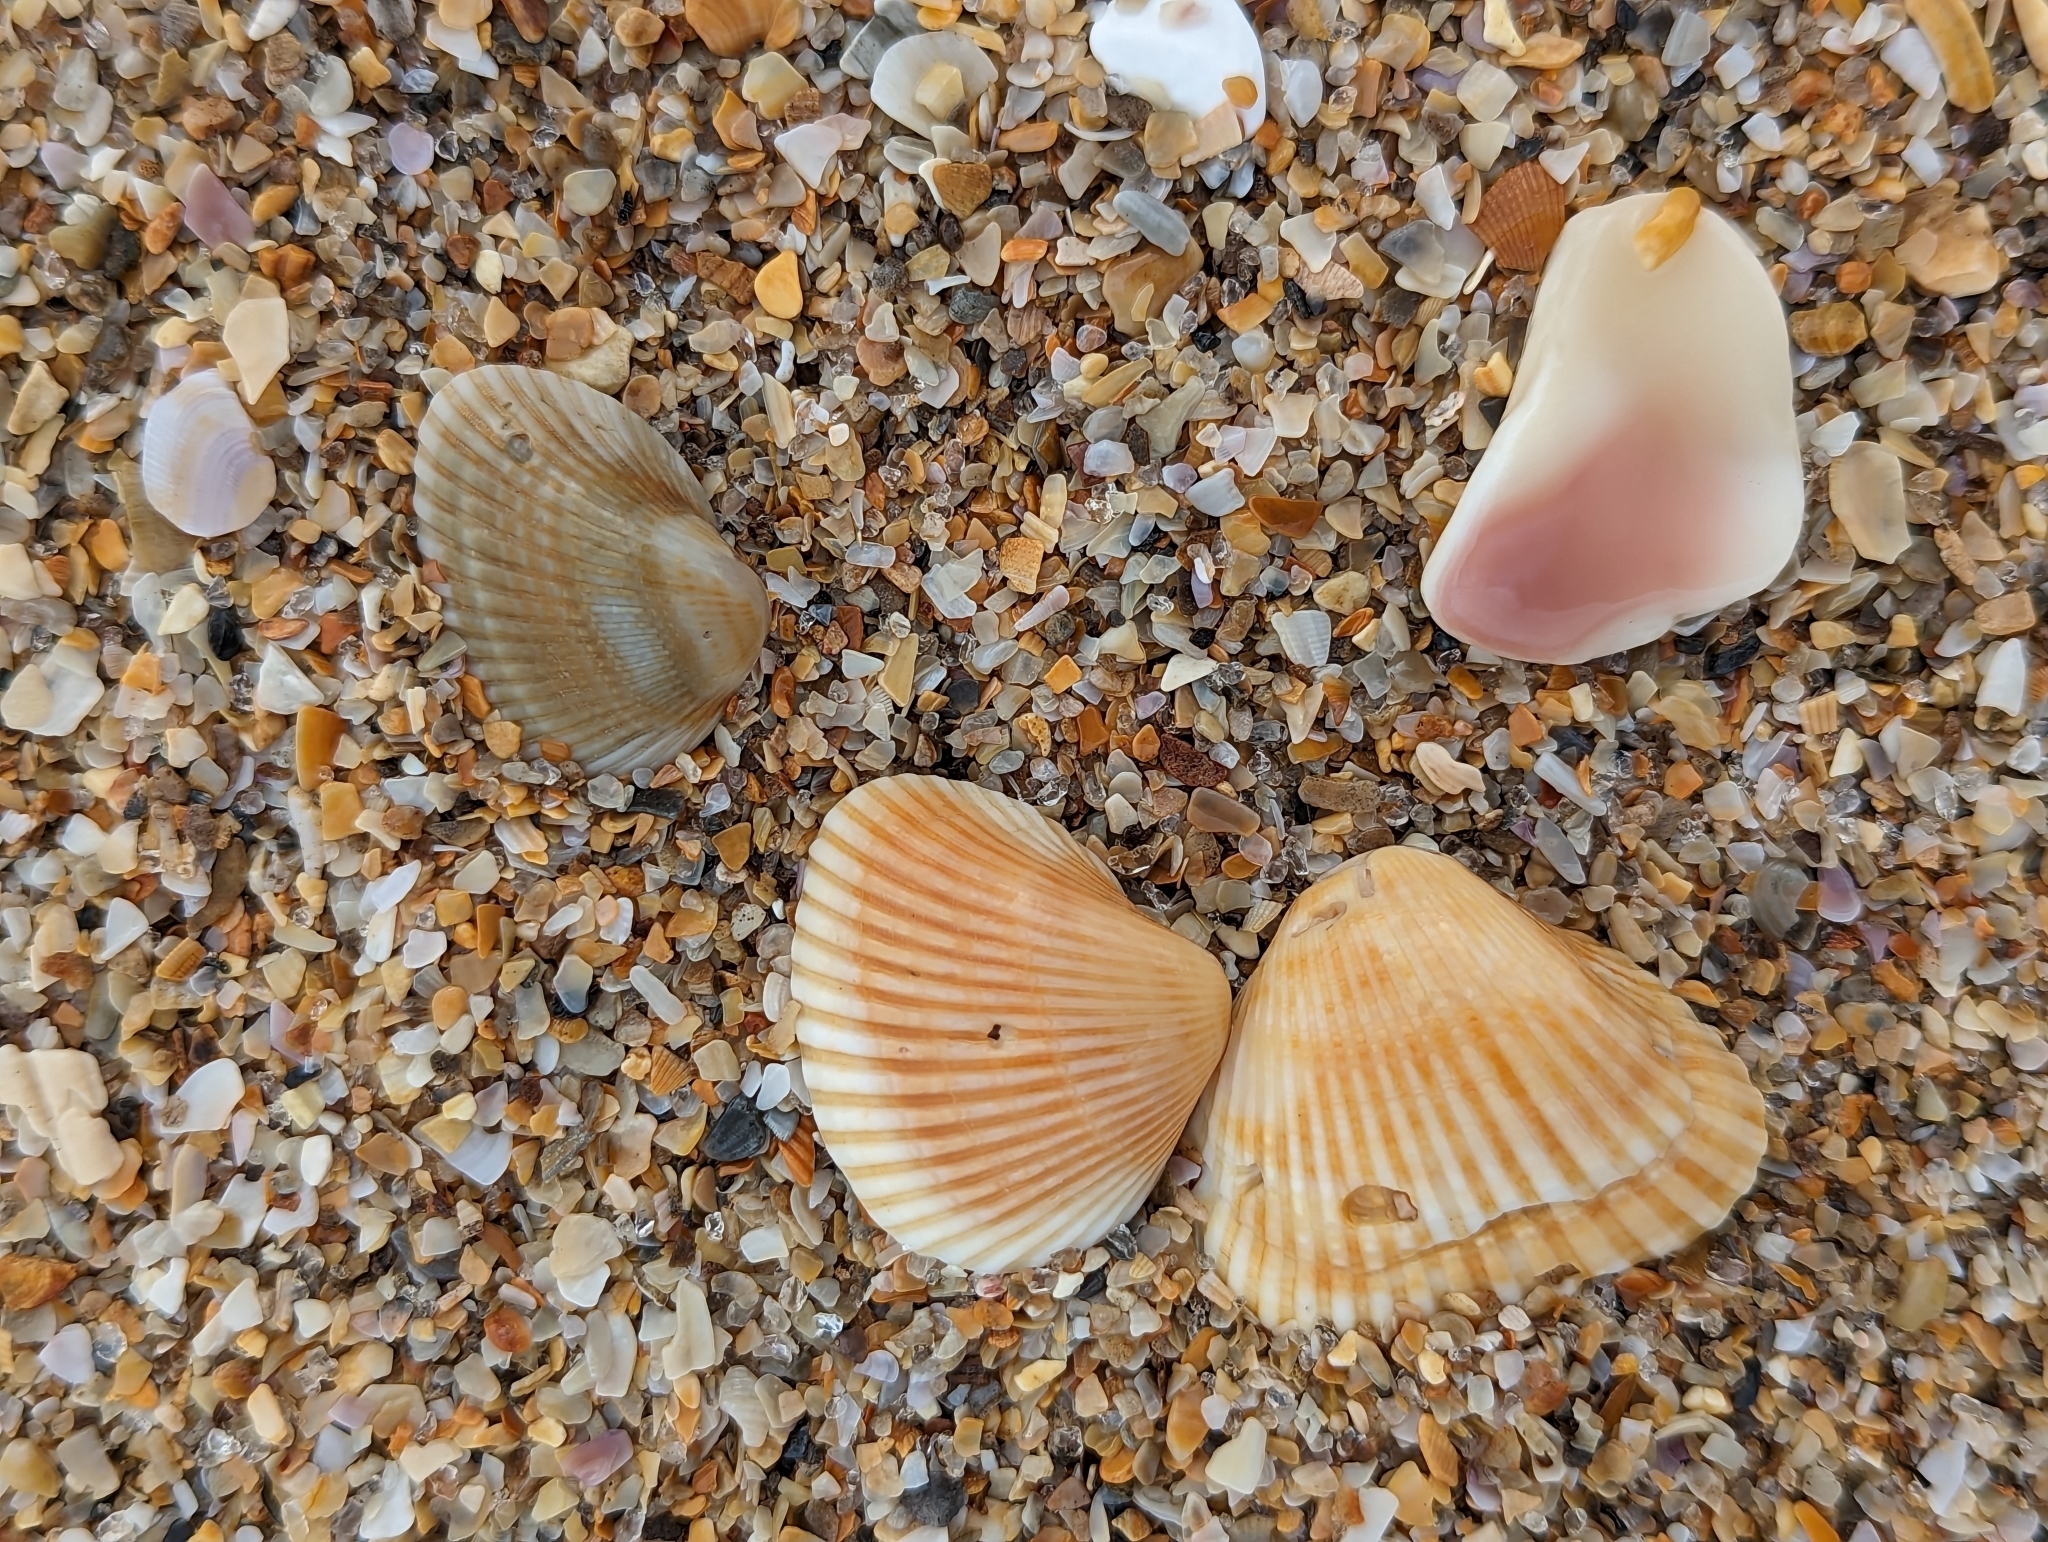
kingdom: Animalia
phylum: Mollusca
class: Bivalvia
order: Arcida
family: Noetiidae
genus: Noetia
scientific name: Noetia ponderosa
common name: Ponderous ark
